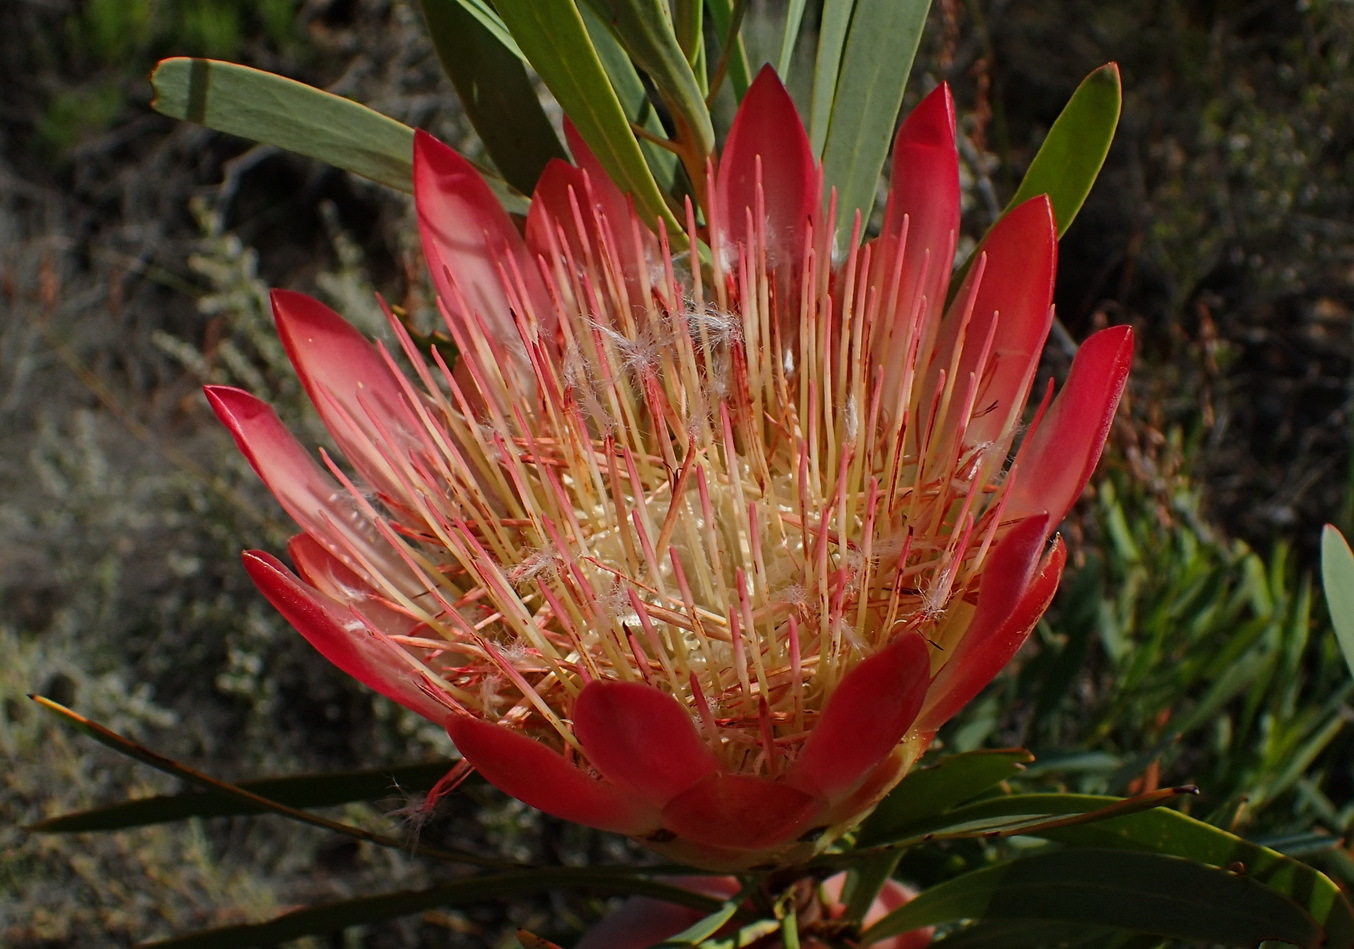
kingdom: Plantae
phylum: Tracheophyta
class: Magnoliopsida
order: Proteales
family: Proteaceae
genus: Protea
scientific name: Protea repens
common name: Sugarbush
